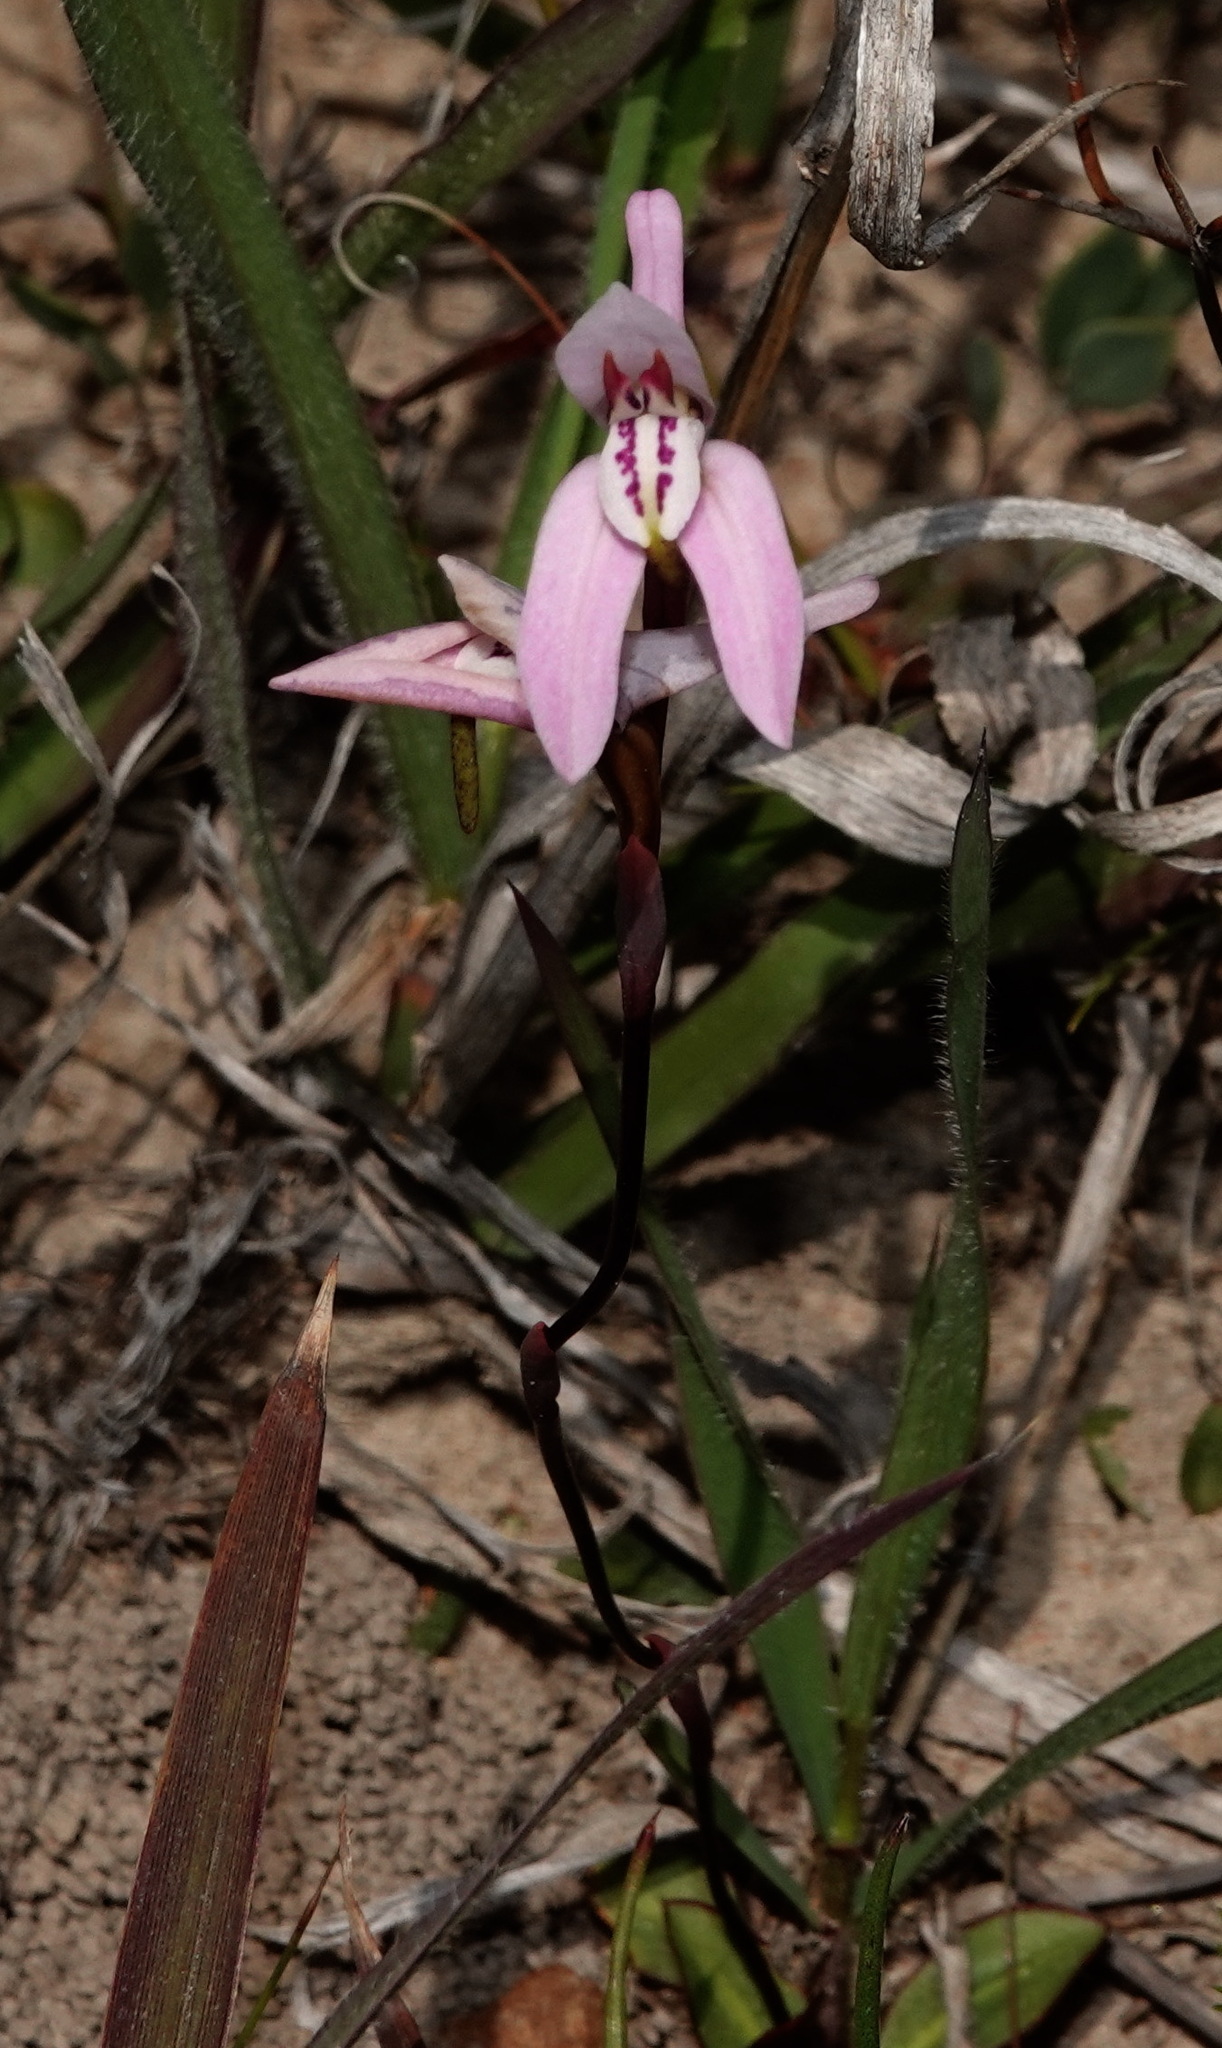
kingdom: Plantae
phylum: Tracheophyta
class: Liliopsida
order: Asparagales
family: Orchidaceae
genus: Disa
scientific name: Disa bifida
